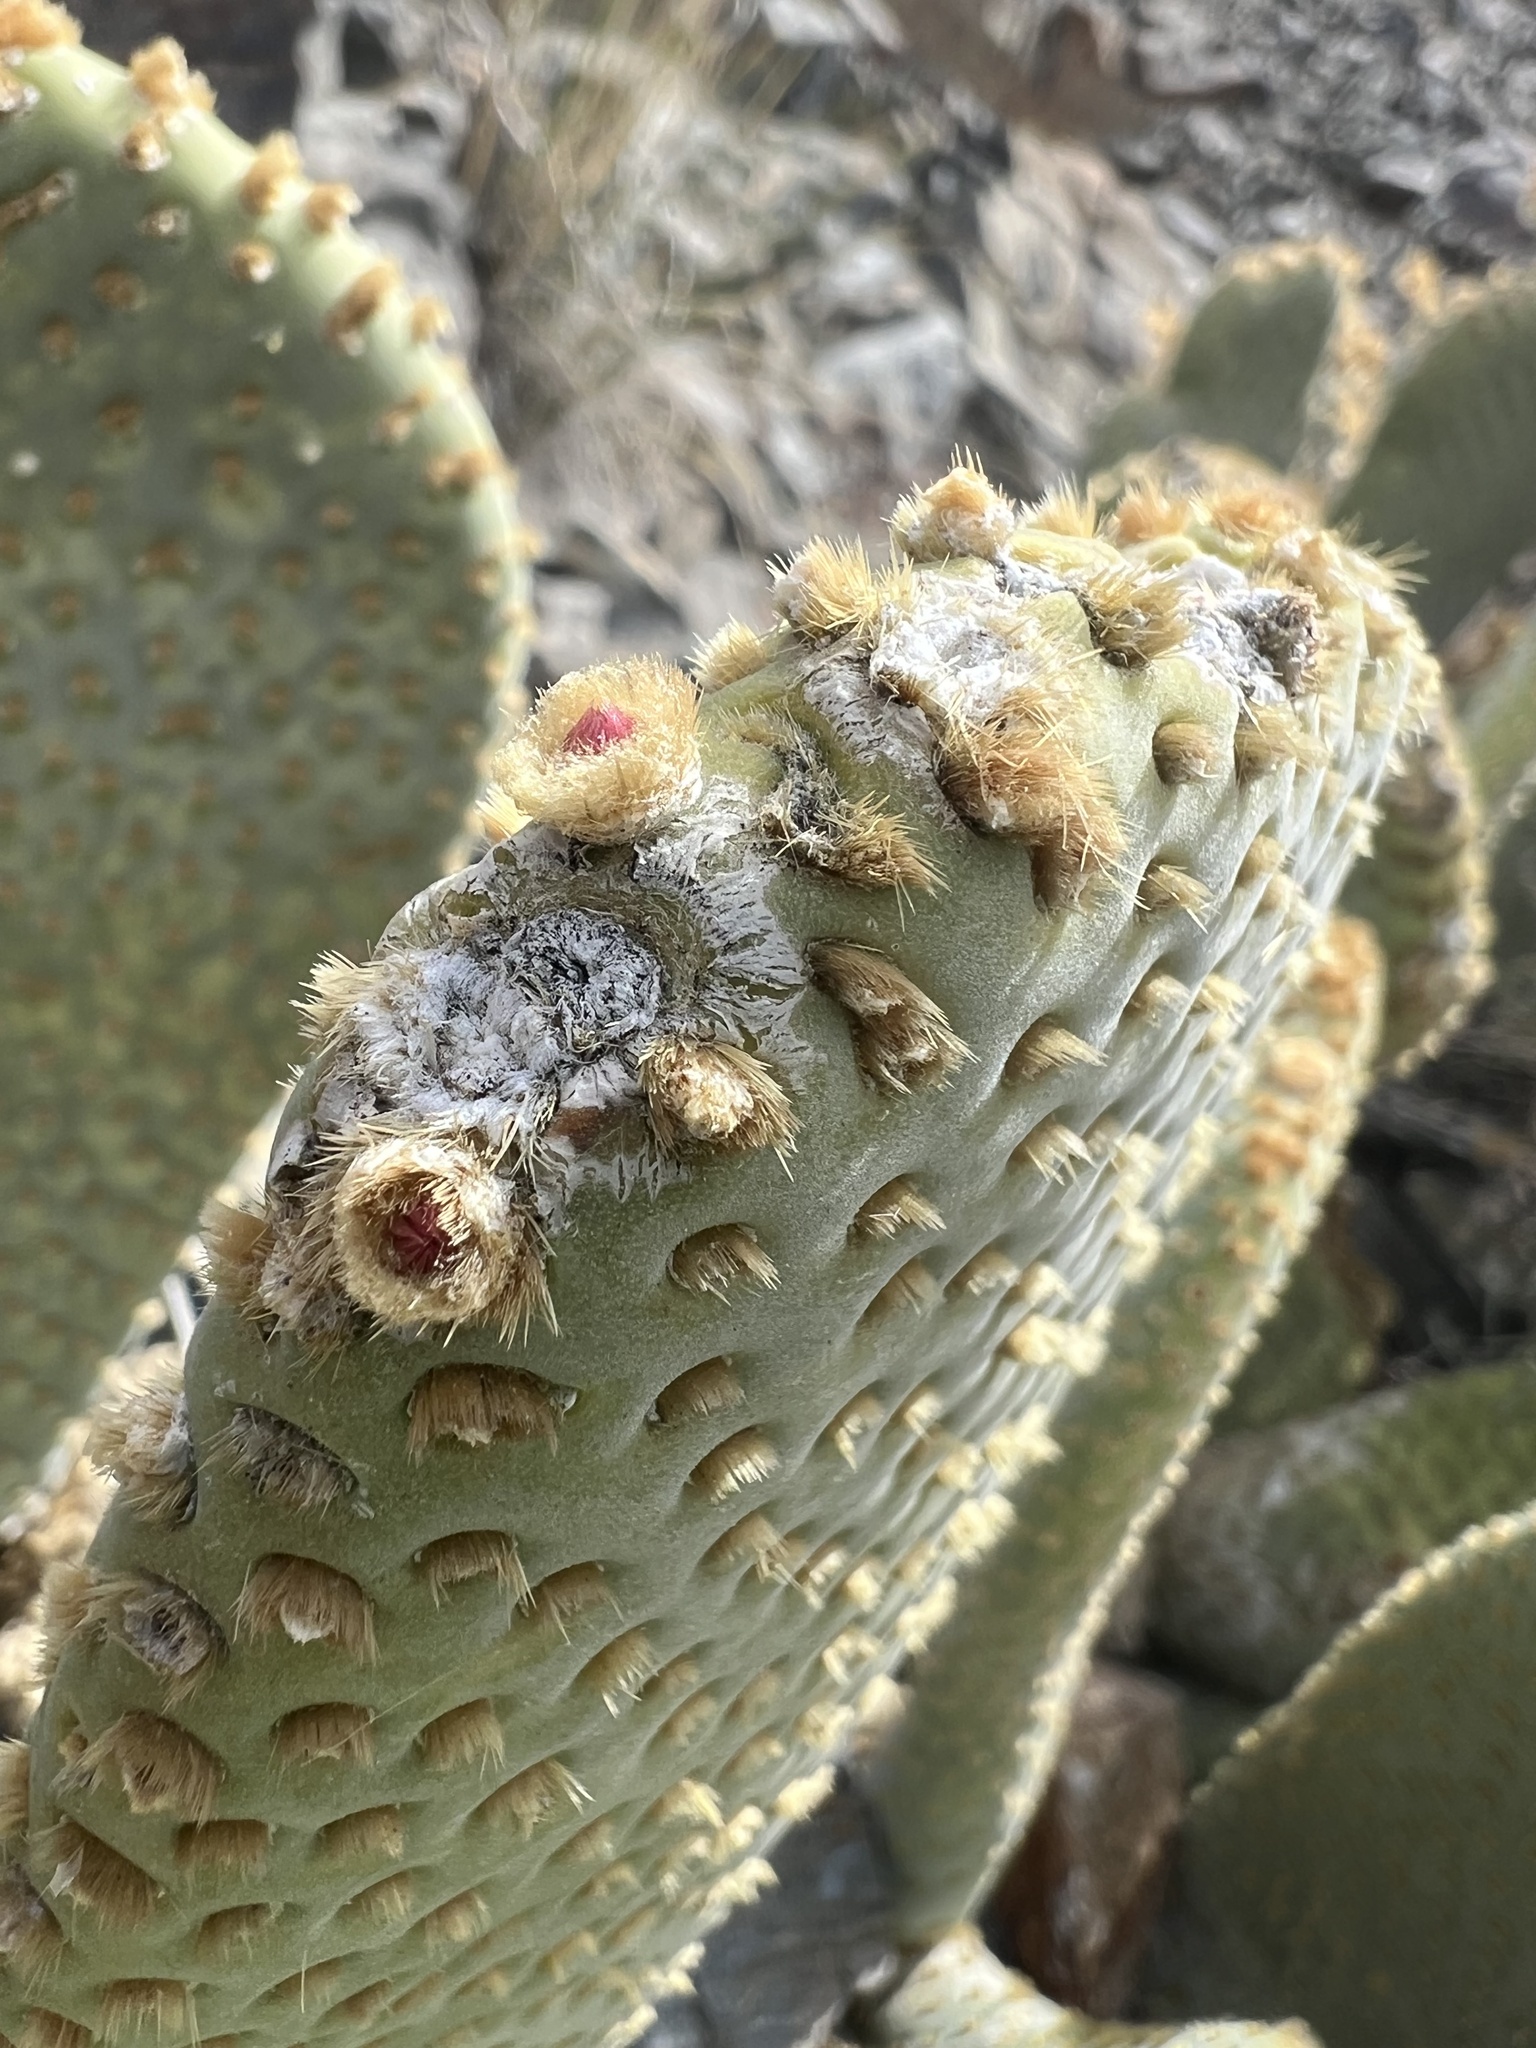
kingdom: Plantae
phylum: Tracheophyta
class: Magnoliopsida
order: Caryophyllales
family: Cactaceae
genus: Opuntia
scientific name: Opuntia basilaris
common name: Beavertail prickly-pear
